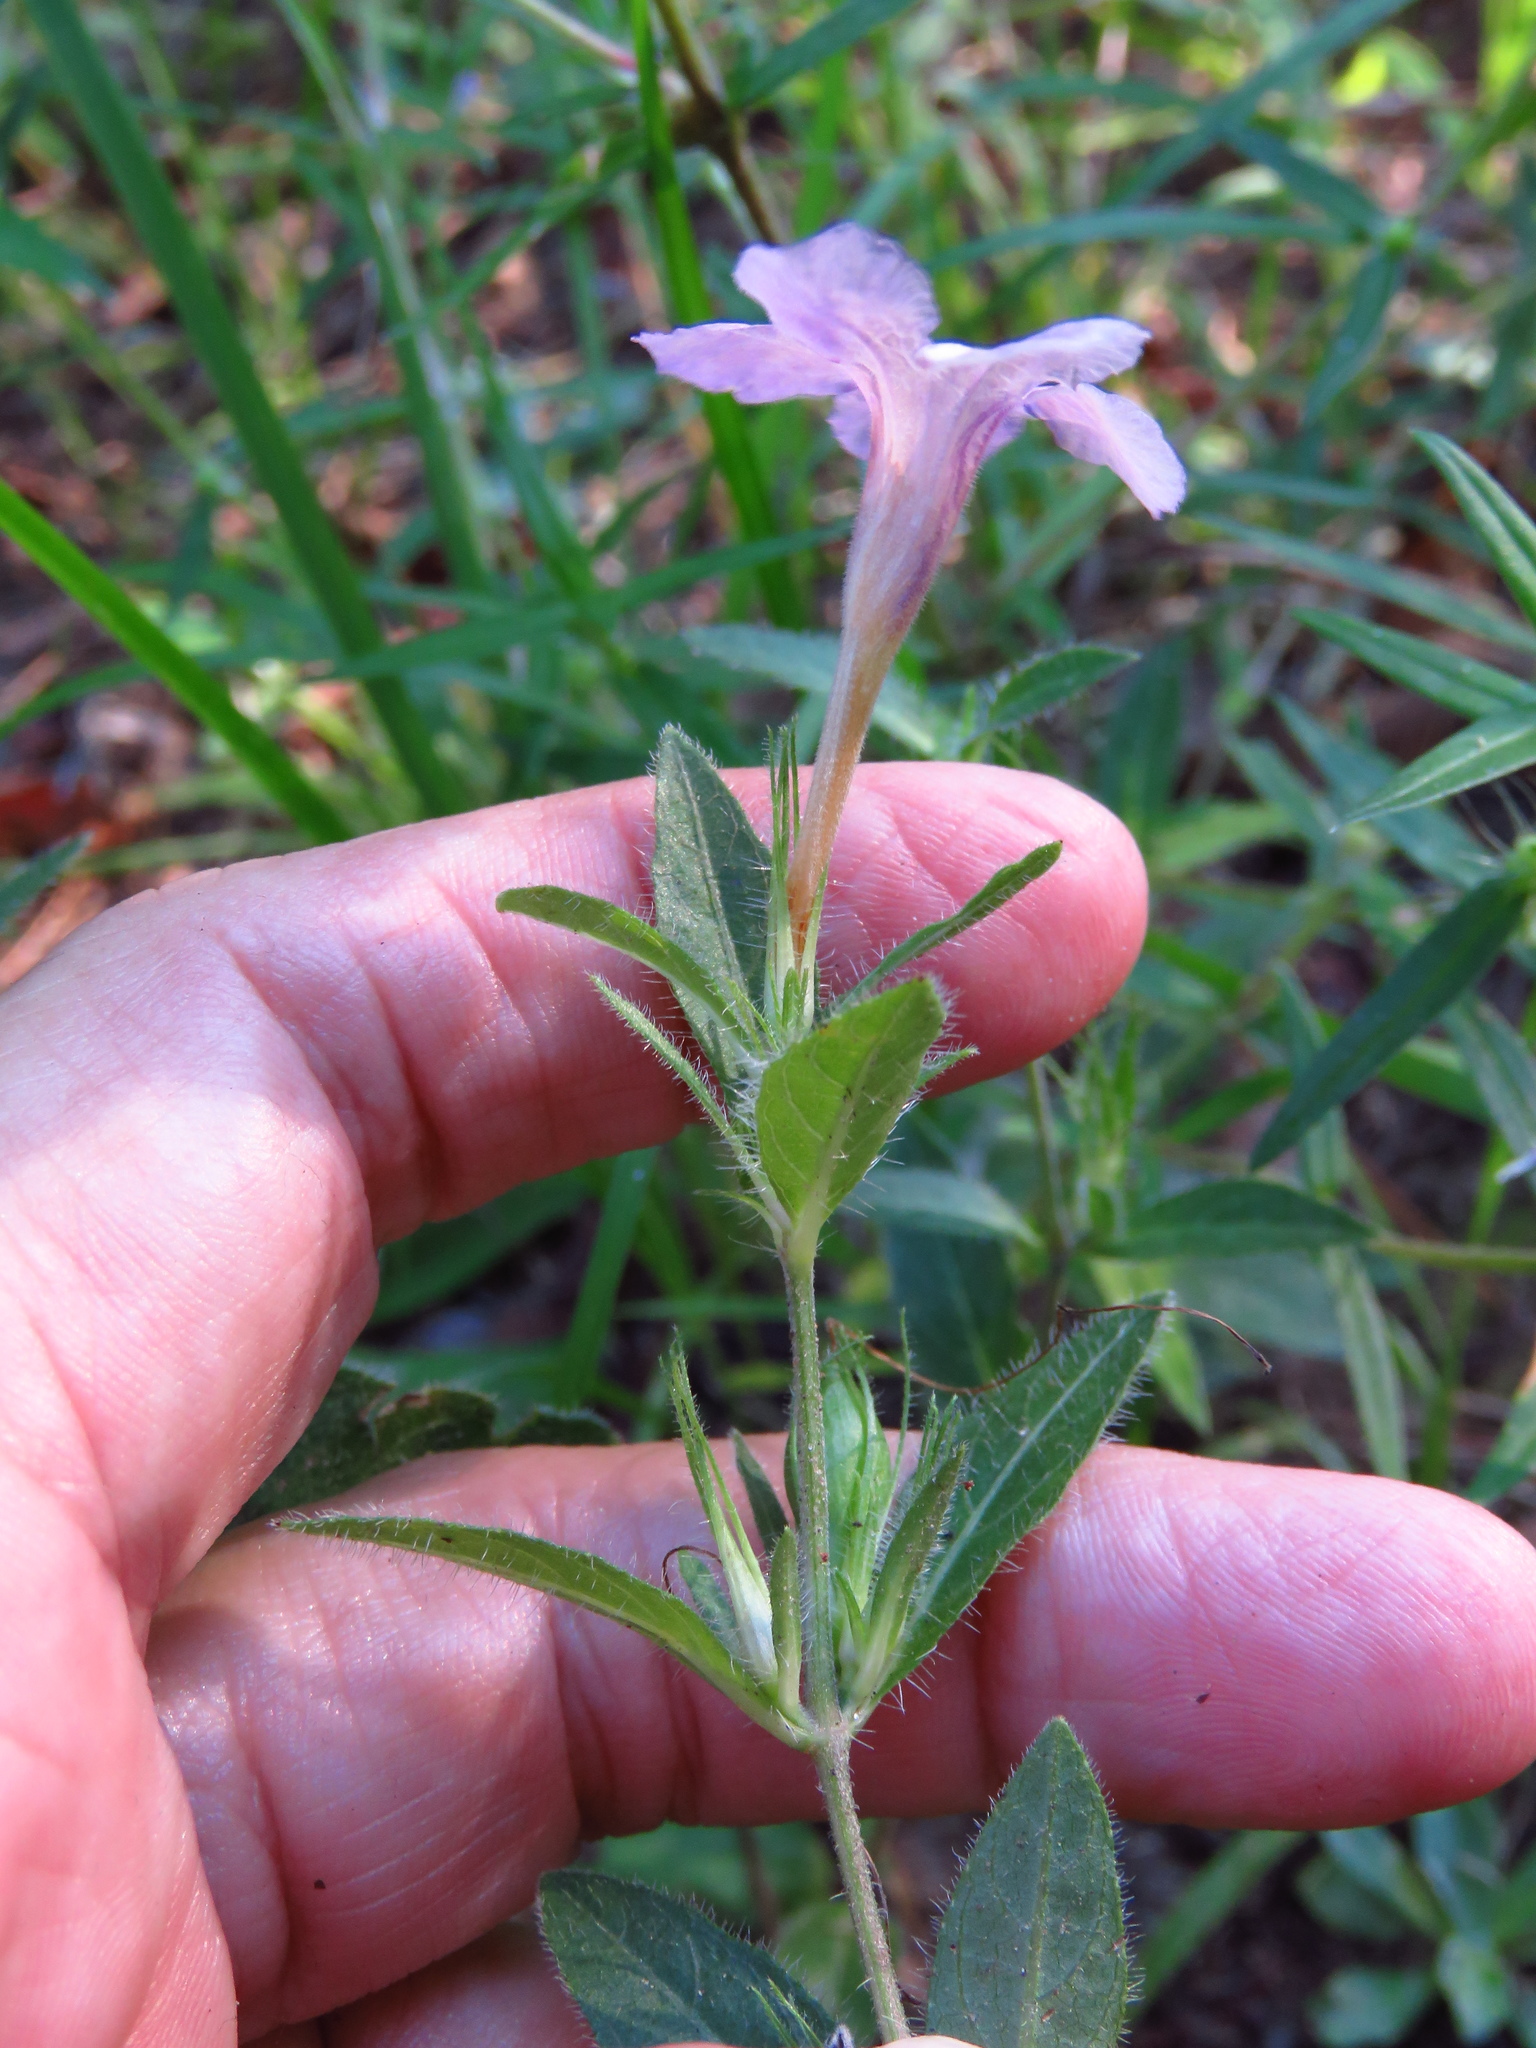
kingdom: Plantae
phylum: Tracheophyta
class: Magnoliopsida
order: Lamiales
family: Acanthaceae
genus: Ruellia
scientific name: Ruellia humilis
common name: Fringe-leaf ruellia
